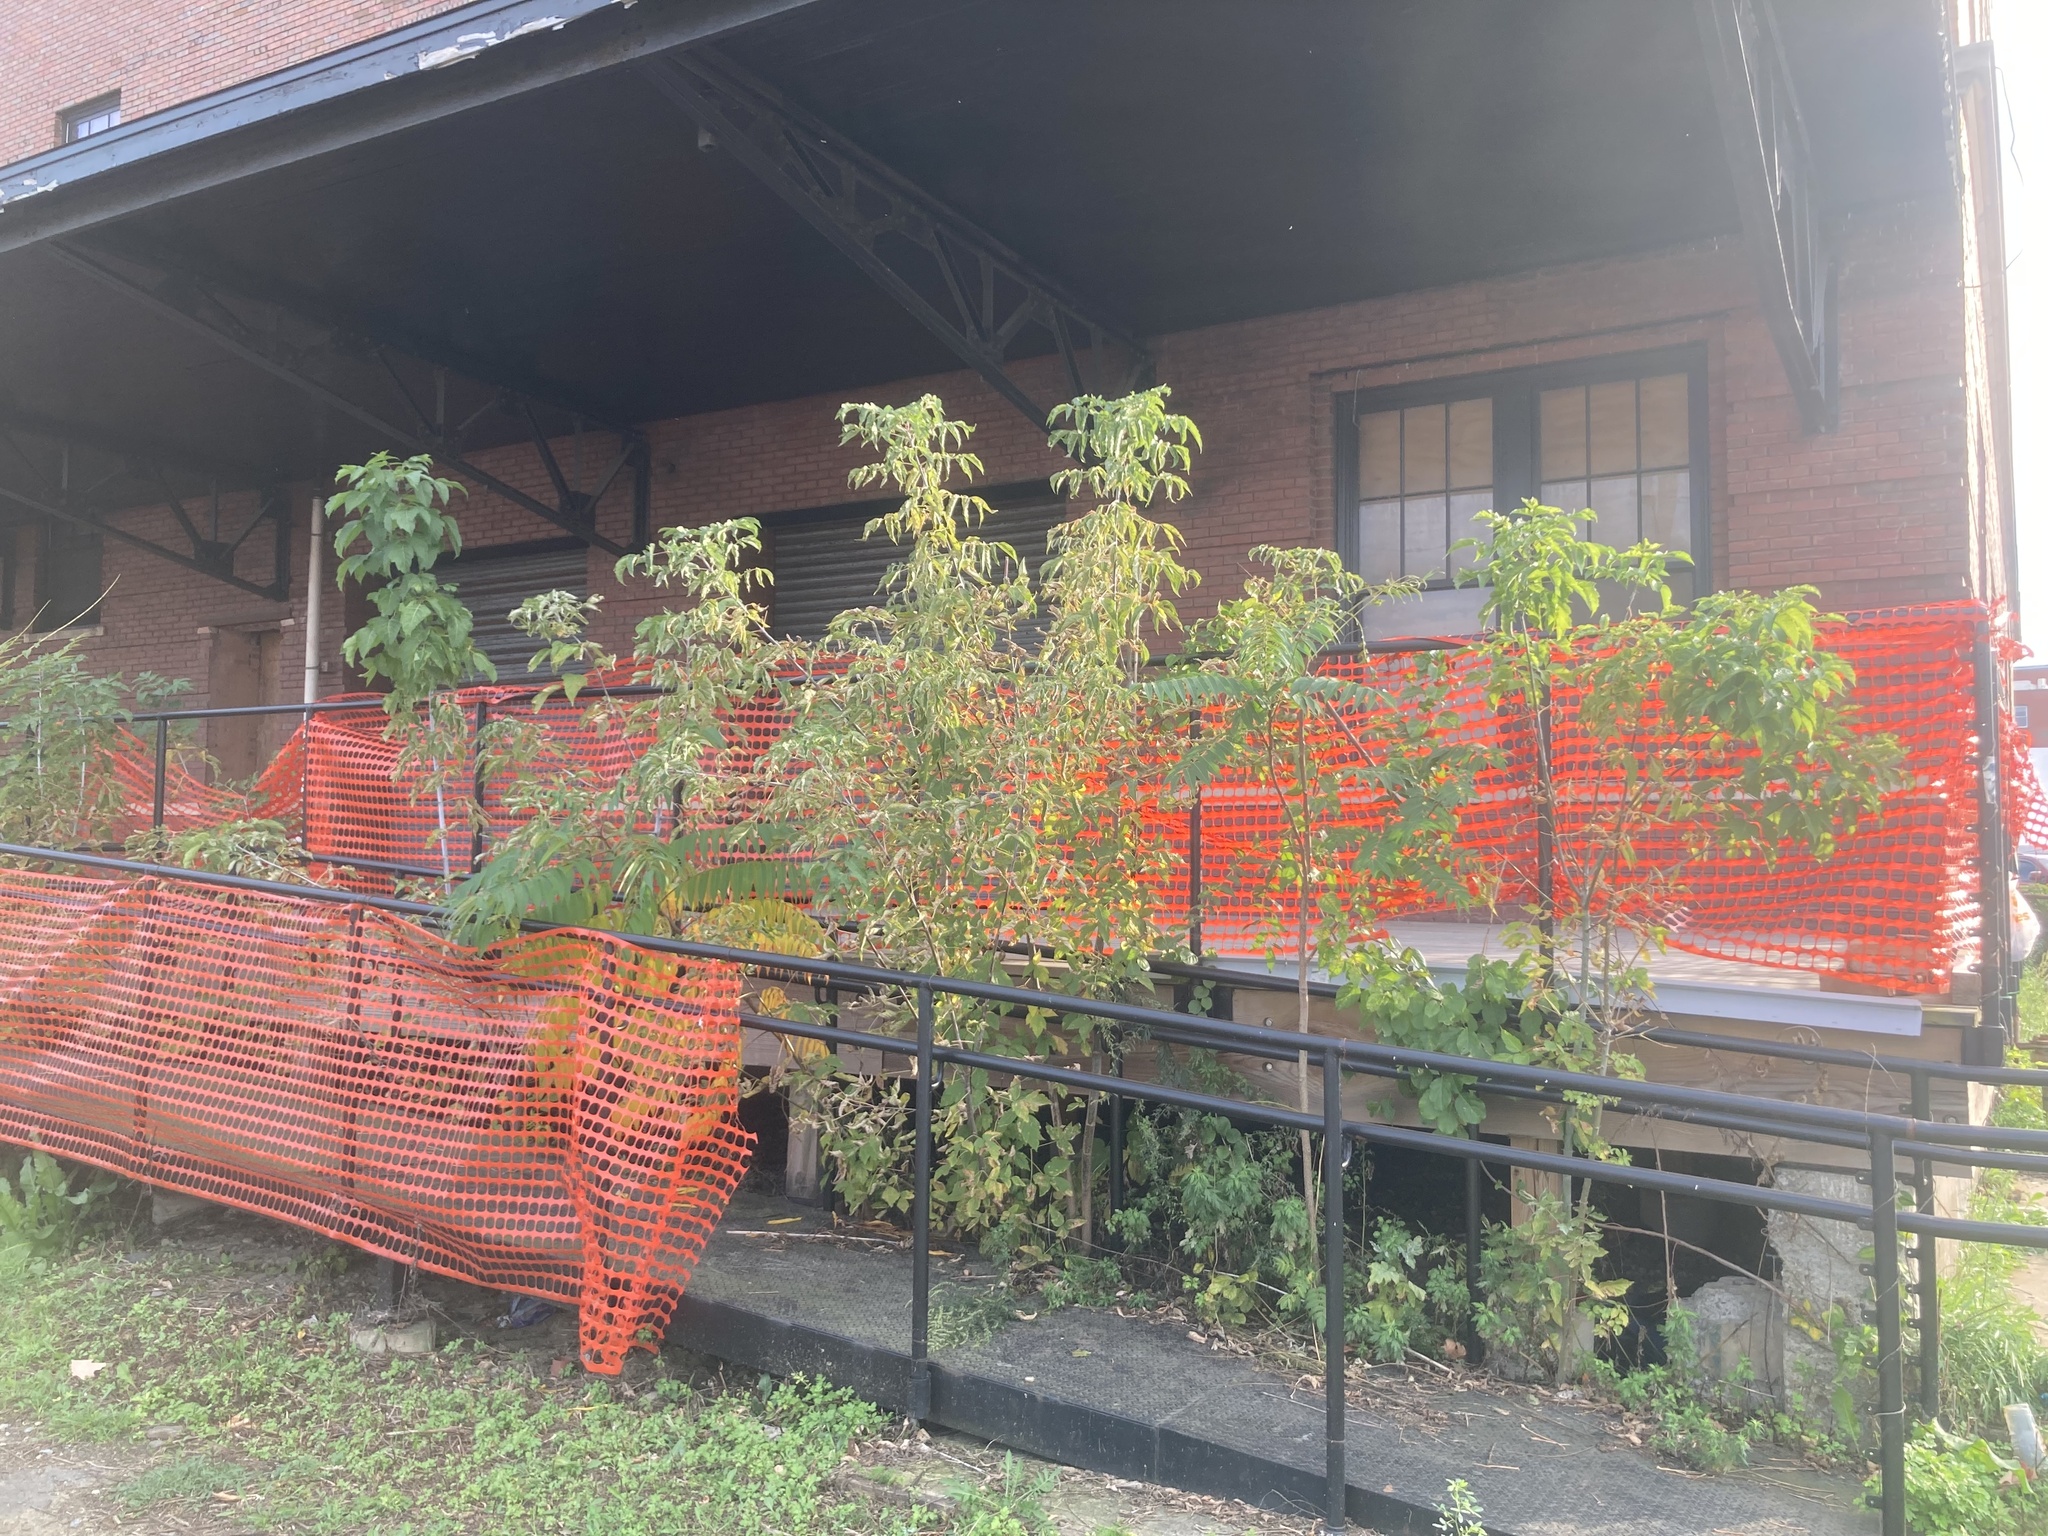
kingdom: Plantae
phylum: Tracheophyta
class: Magnoliopsida
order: Sapindales
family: Simaroubaceae
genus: Ailanthus
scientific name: Ailanthus altissima
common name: Tree-of-heaven
